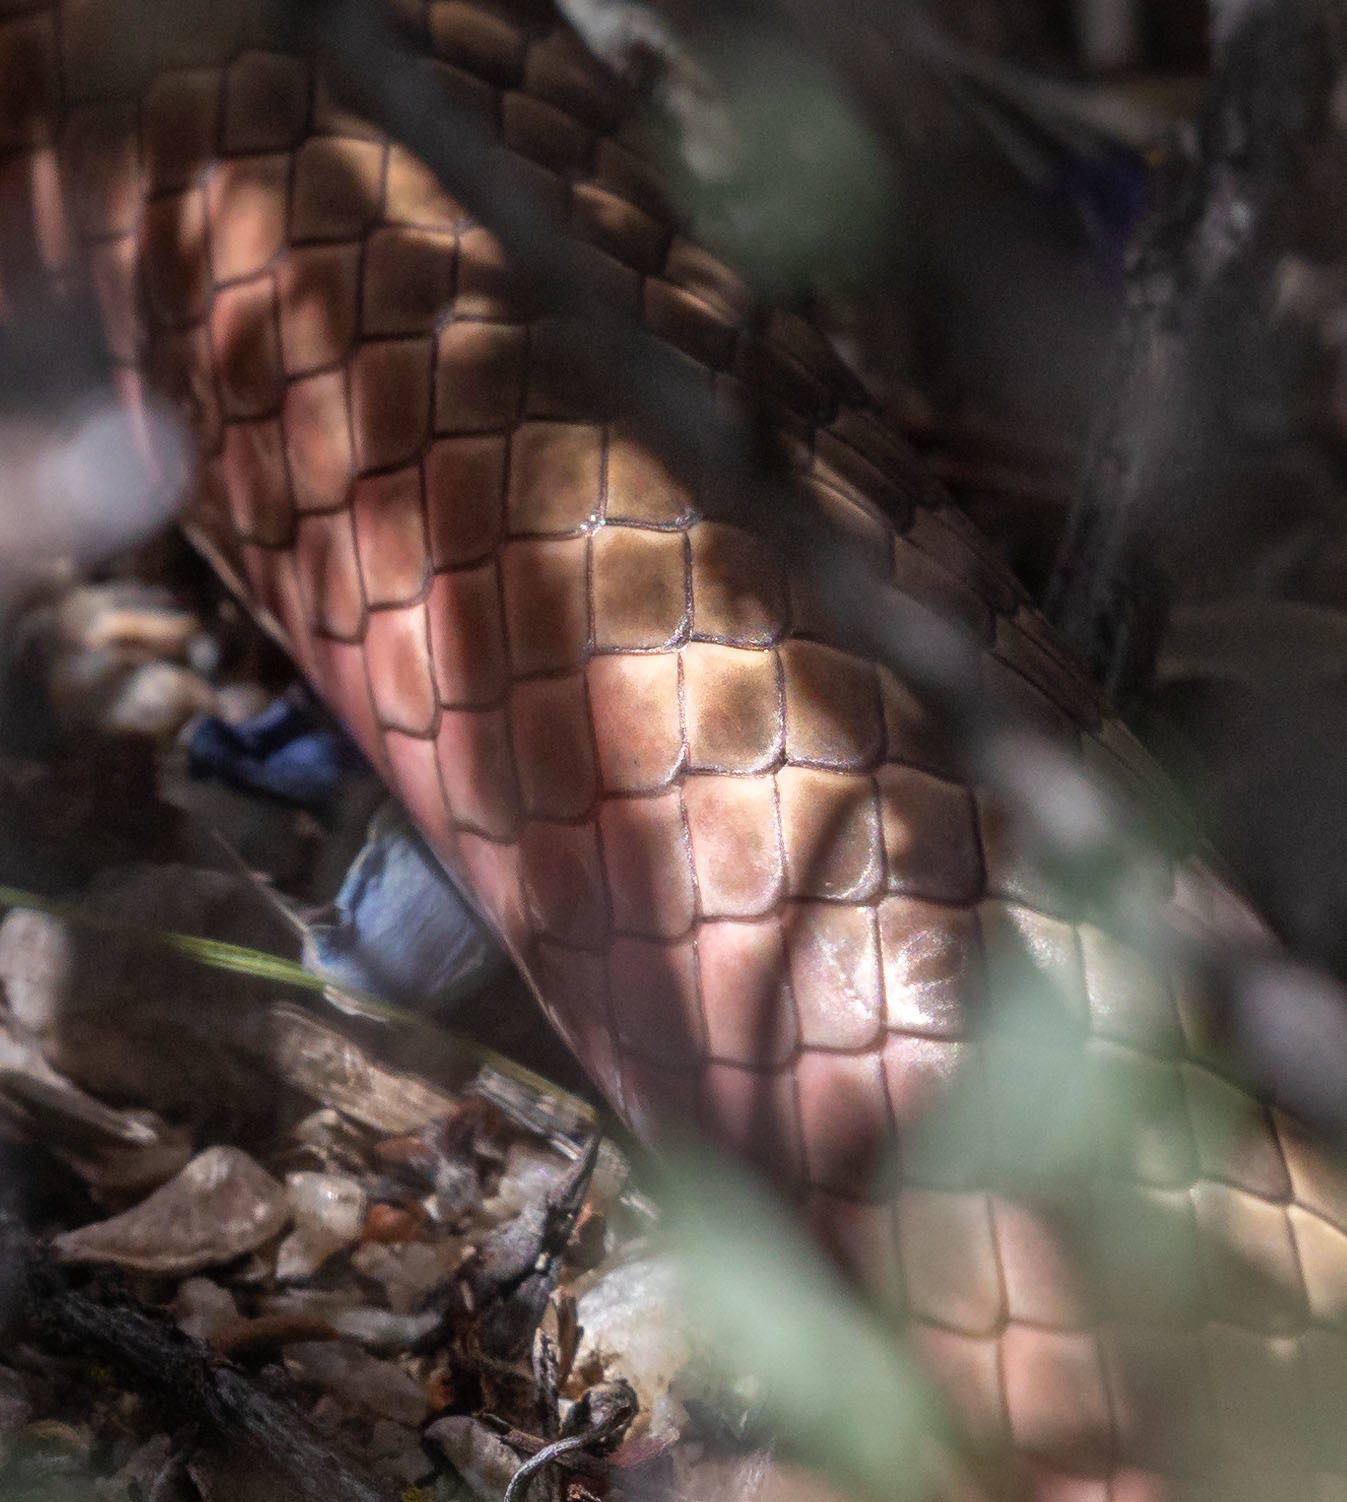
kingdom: Animalia
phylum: Chordata
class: Squamata
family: Colubridae
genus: Masticophis
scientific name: Masticophis flagellum
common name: Coachwhip
